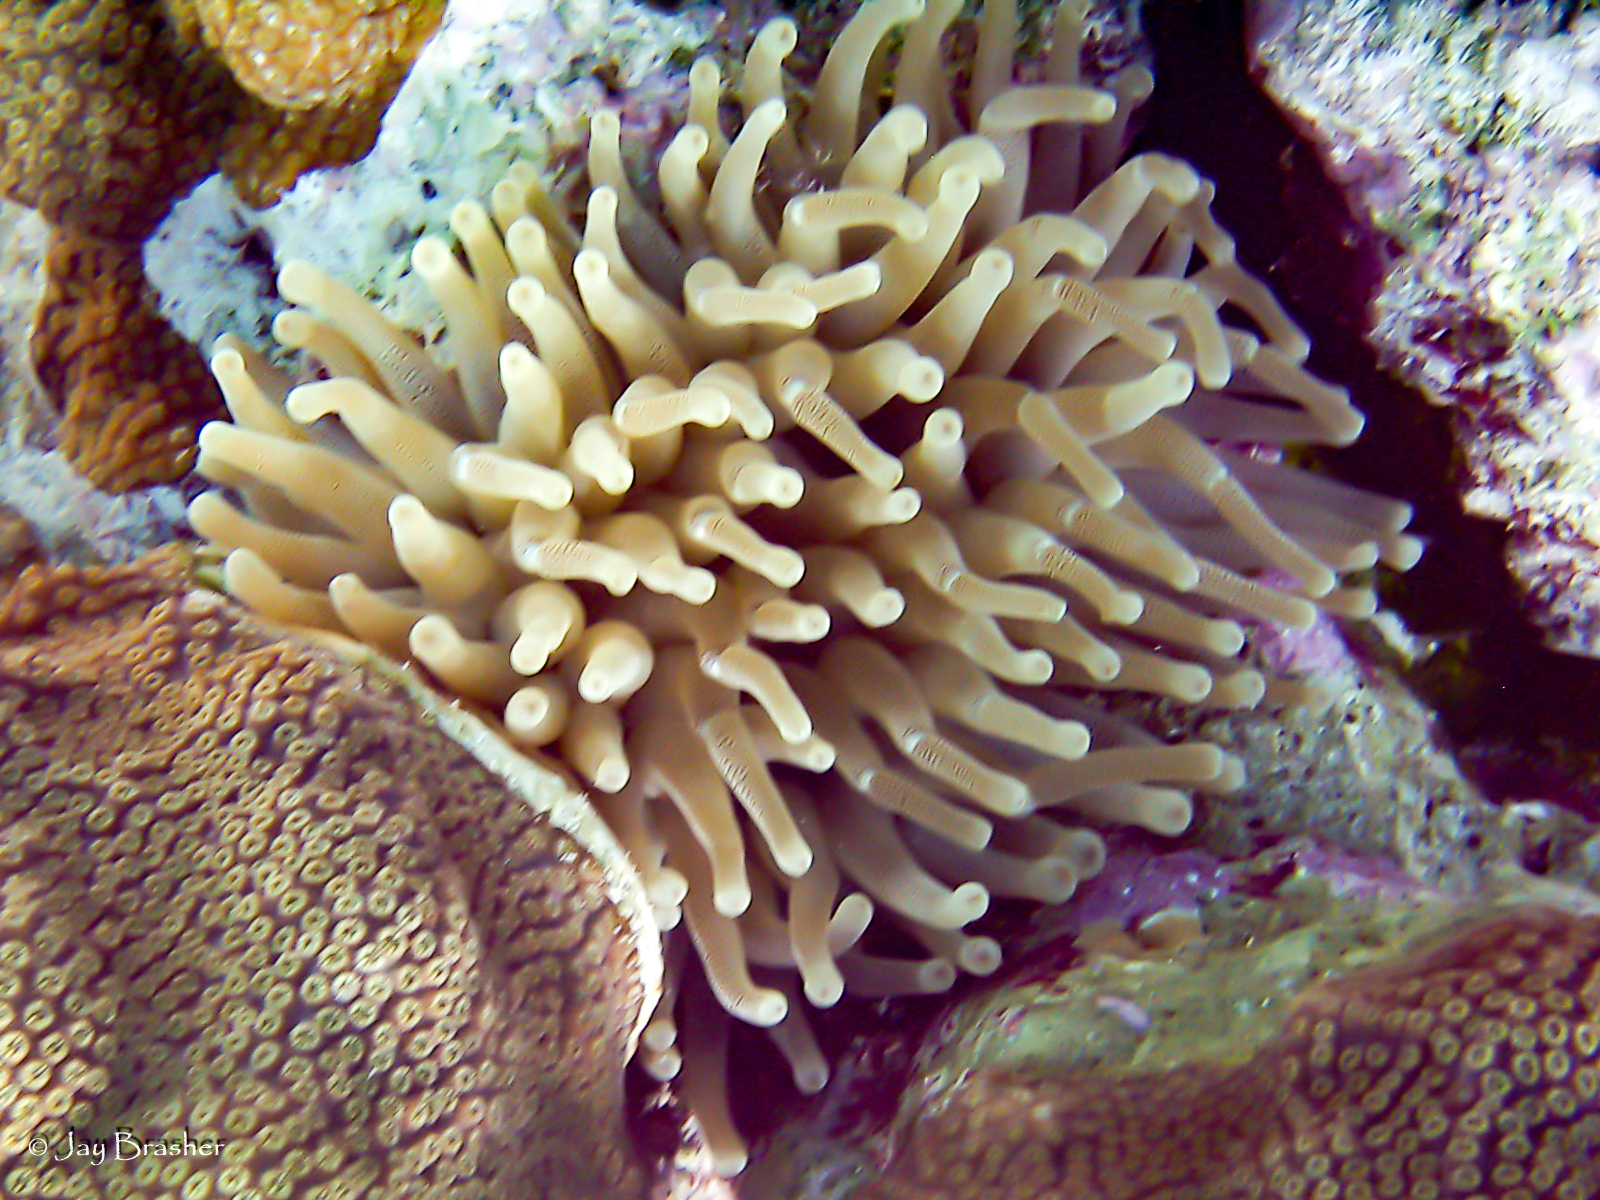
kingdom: Animalia
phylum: Cnidaria
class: Anthozoa
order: Actiniaria
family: Actiniidae
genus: Condylactis
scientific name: Condylactis gigantea
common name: Giant caribbean anemone
